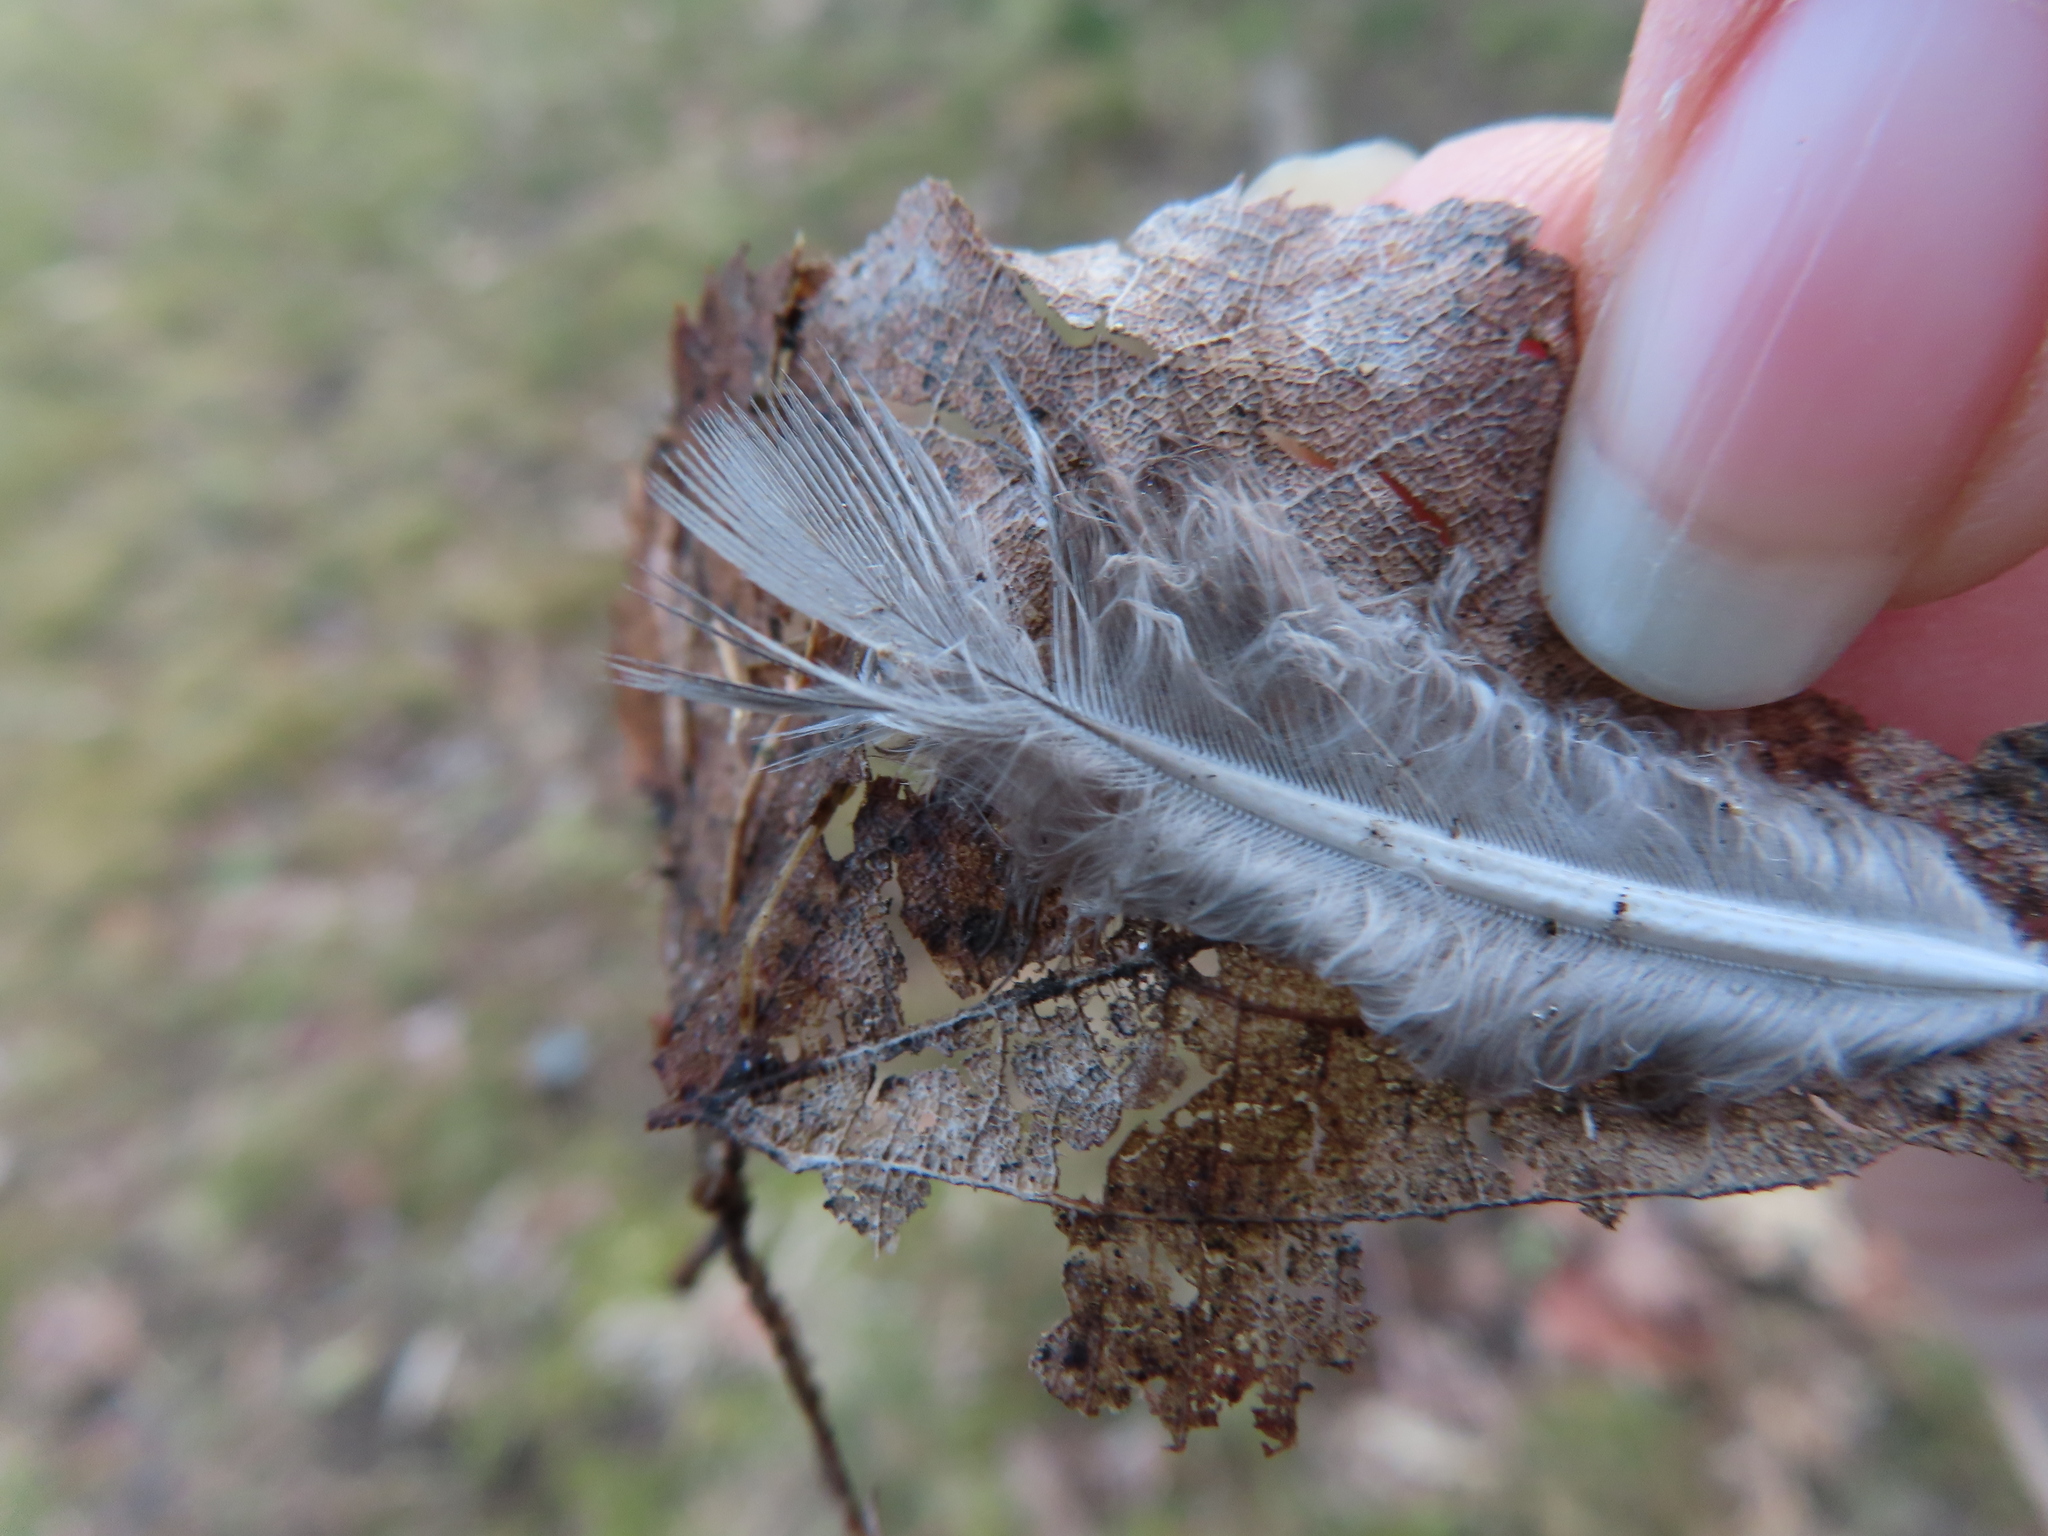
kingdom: Animalia
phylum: Chordata
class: Aves
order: Columbiformes
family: Columbidae
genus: Zenaida
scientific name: Zenaida macroura
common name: Mourning dove
